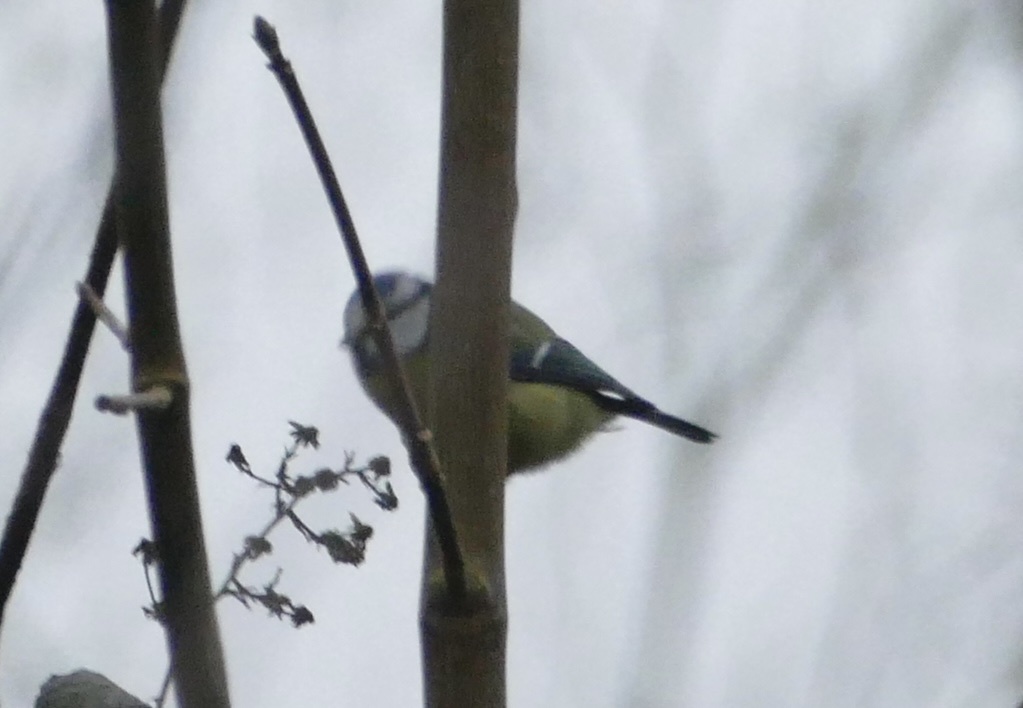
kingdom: Animalia
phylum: Chordata
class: Aves
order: Passeriformes
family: Paridae
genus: Cyanistes
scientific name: Cyanistes caeruleus
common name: Eurasian blue tit
